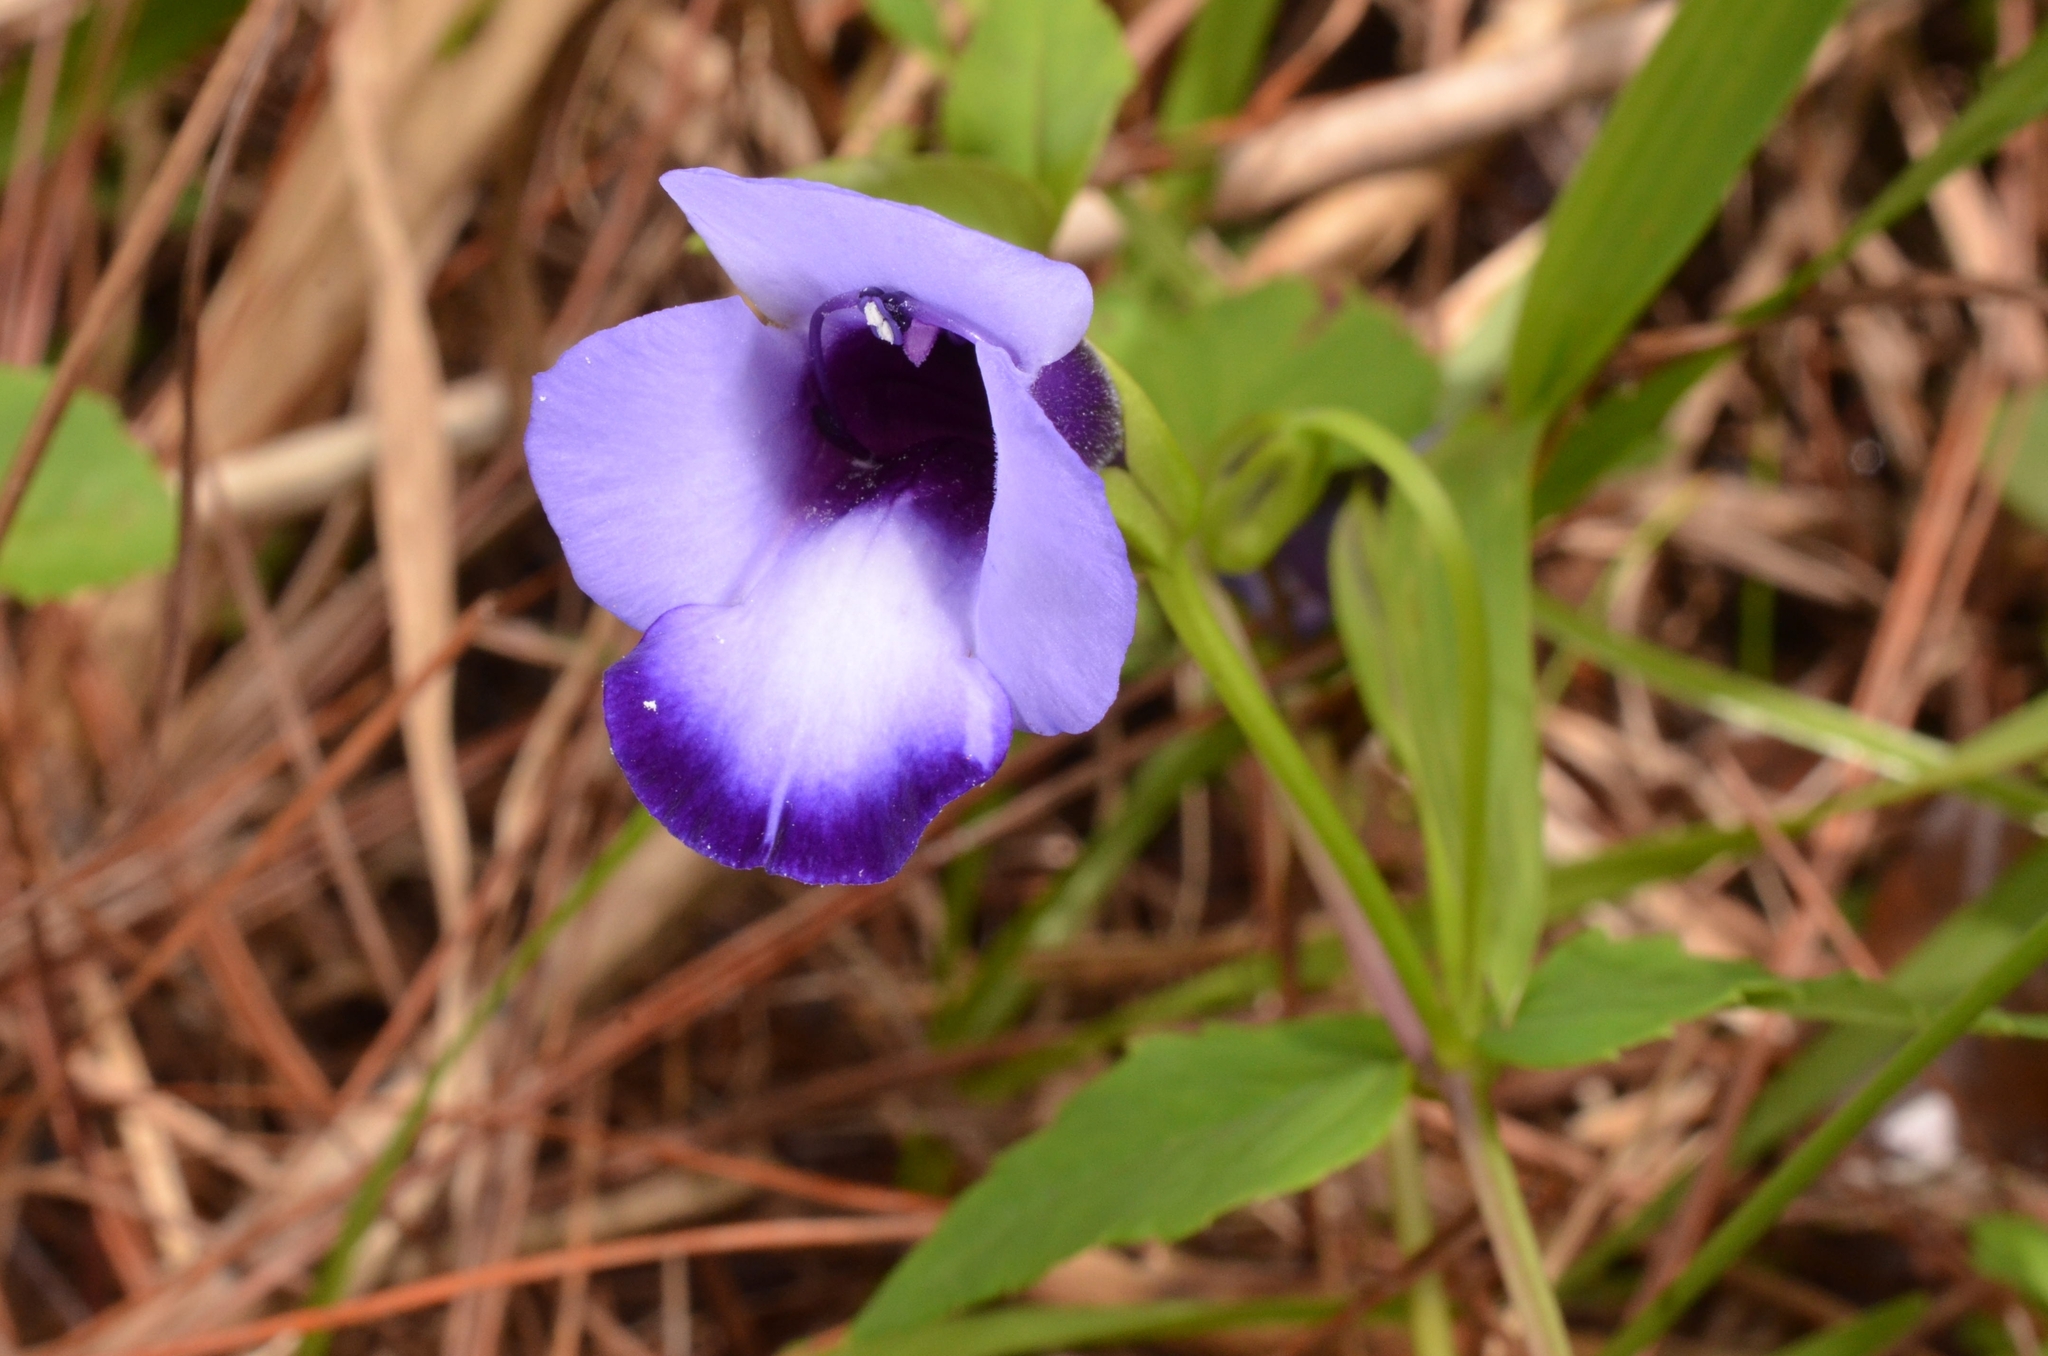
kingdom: Plantae
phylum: Tracheophyta
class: Magnoliopsida
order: Lamiales
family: Linderniaceae
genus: Torenia
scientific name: Torenia concolor
